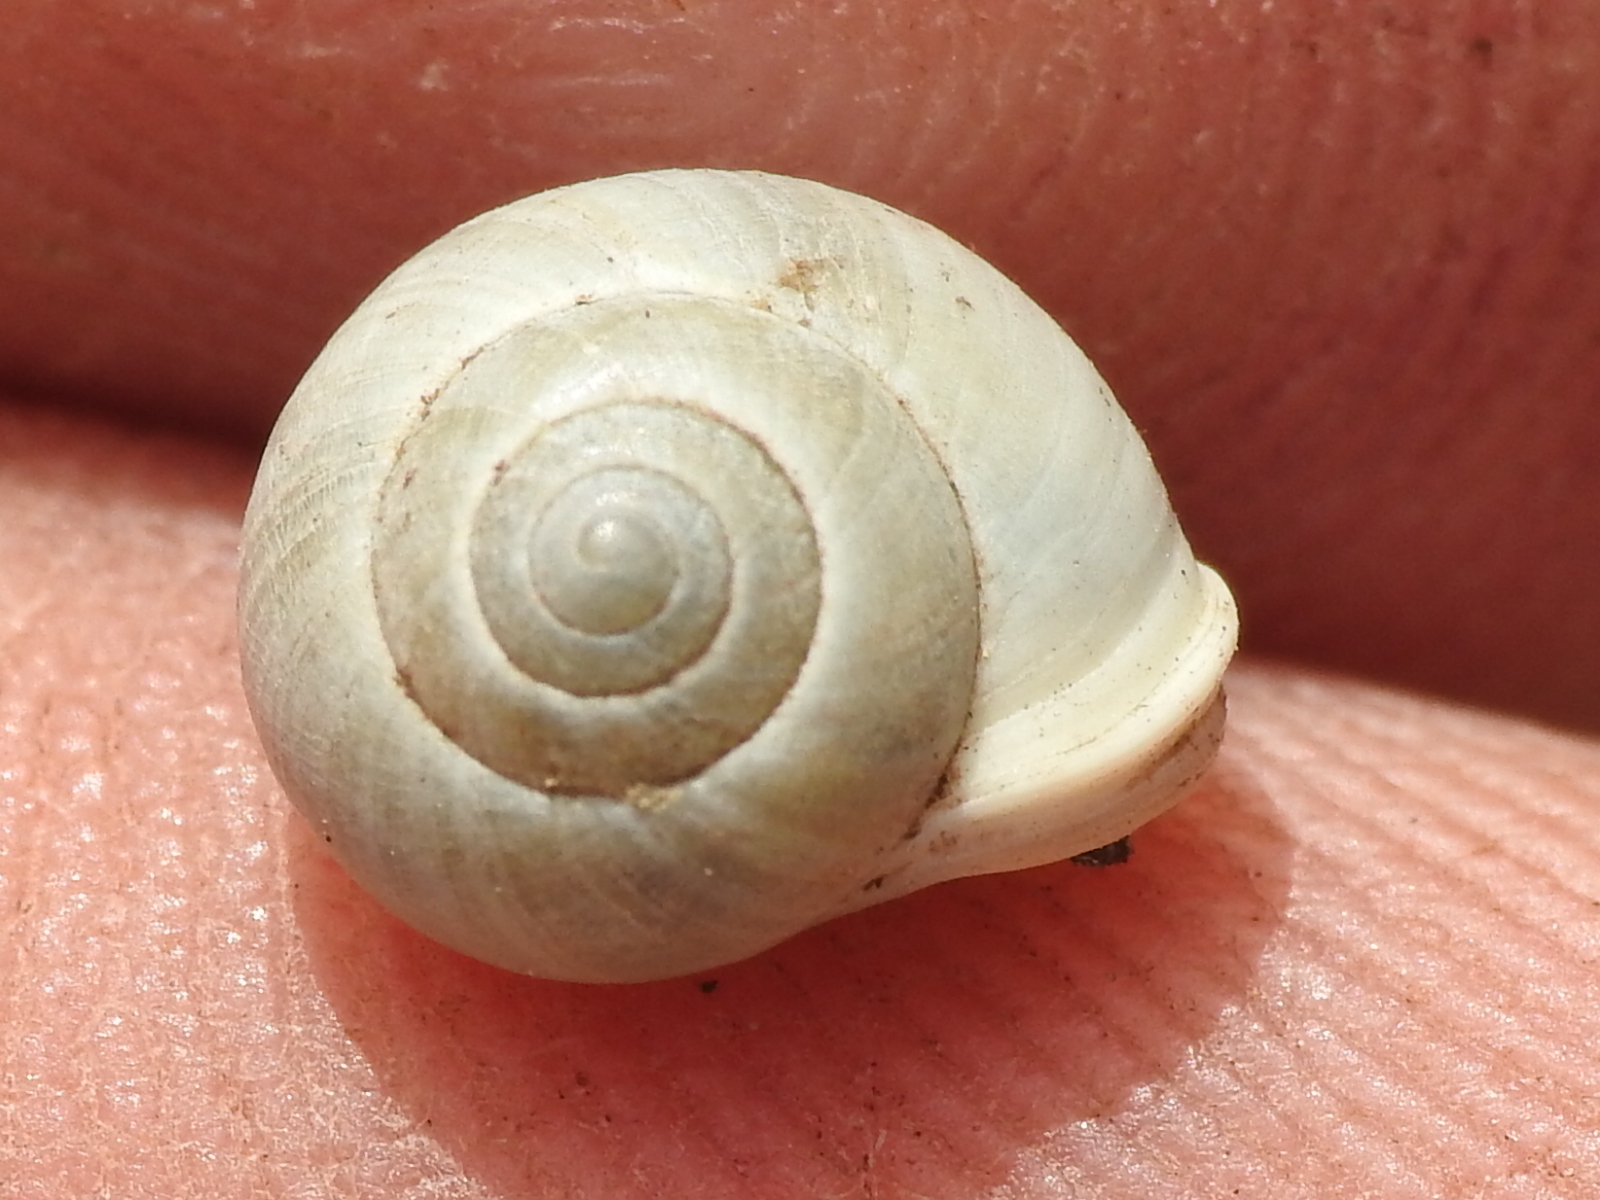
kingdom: Animalia
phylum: Mollusca
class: Gastropoda
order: Cycloneritida
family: Helicinidae
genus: Helicina
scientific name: Helicina orbiculata
